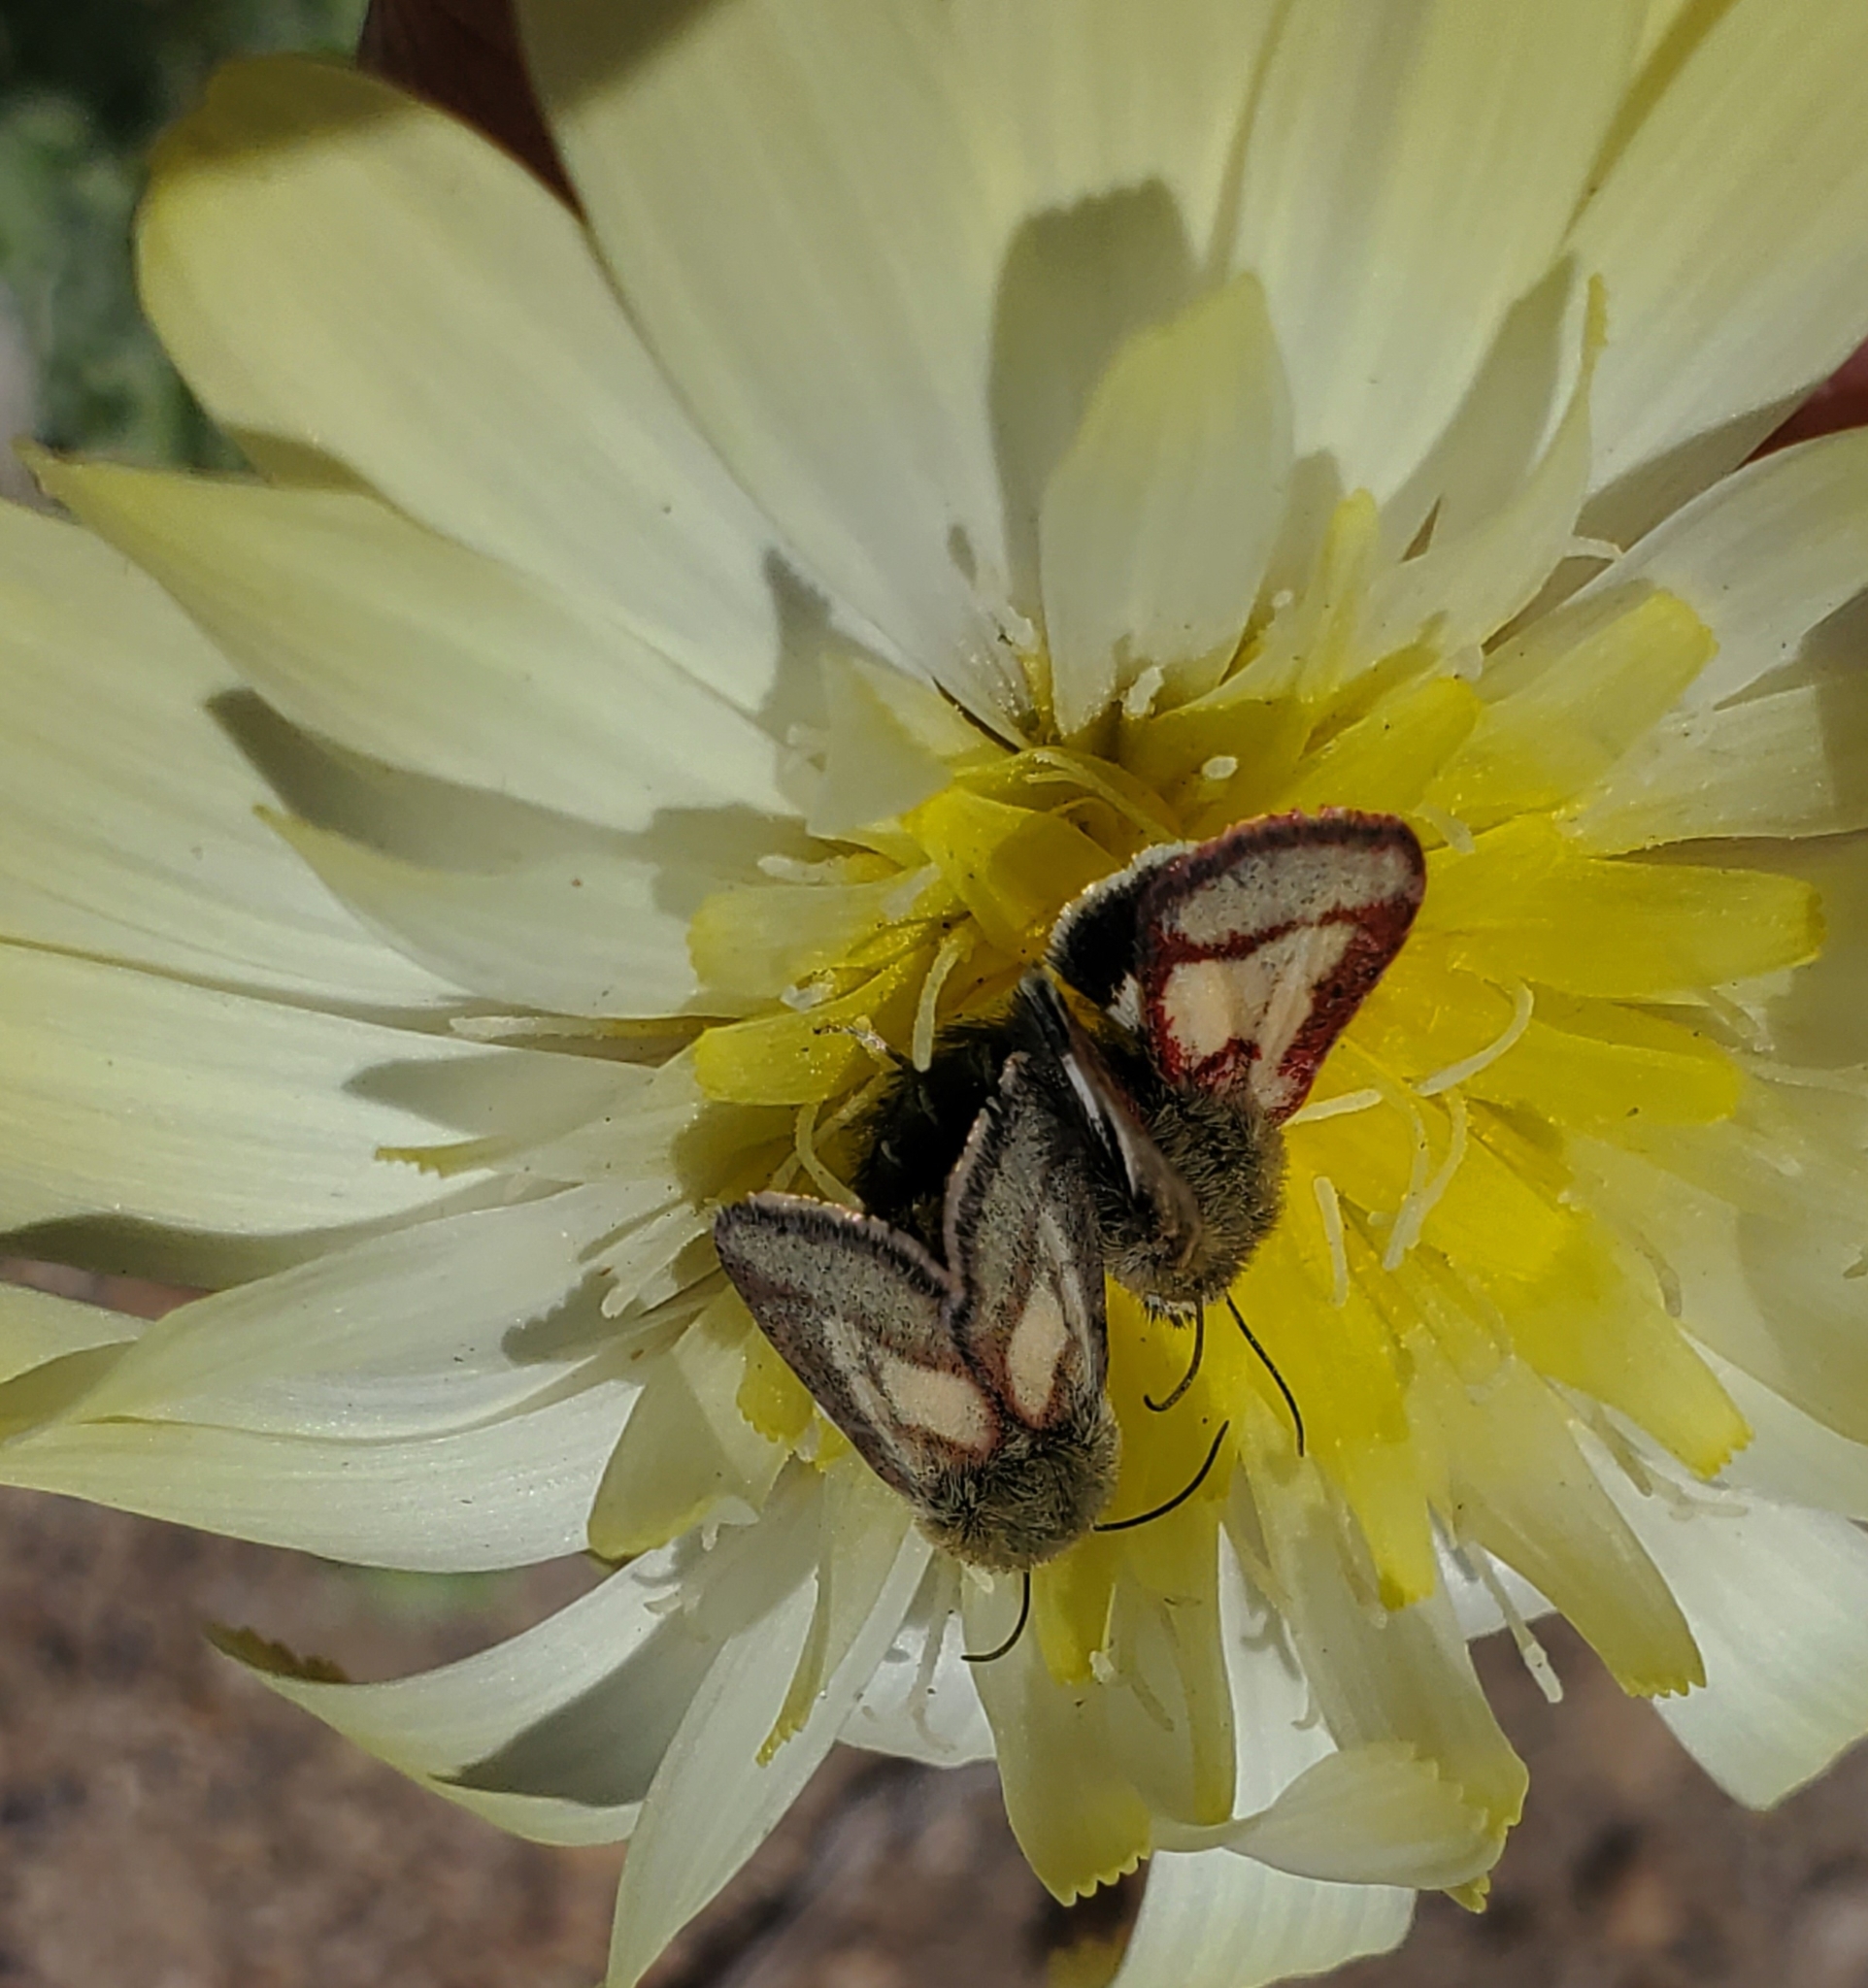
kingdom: Animalia
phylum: Arthropoda
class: Insecta
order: Lepidoptera
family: Noctuidae
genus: Heliolonche
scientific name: Heliolonche pictipennis
